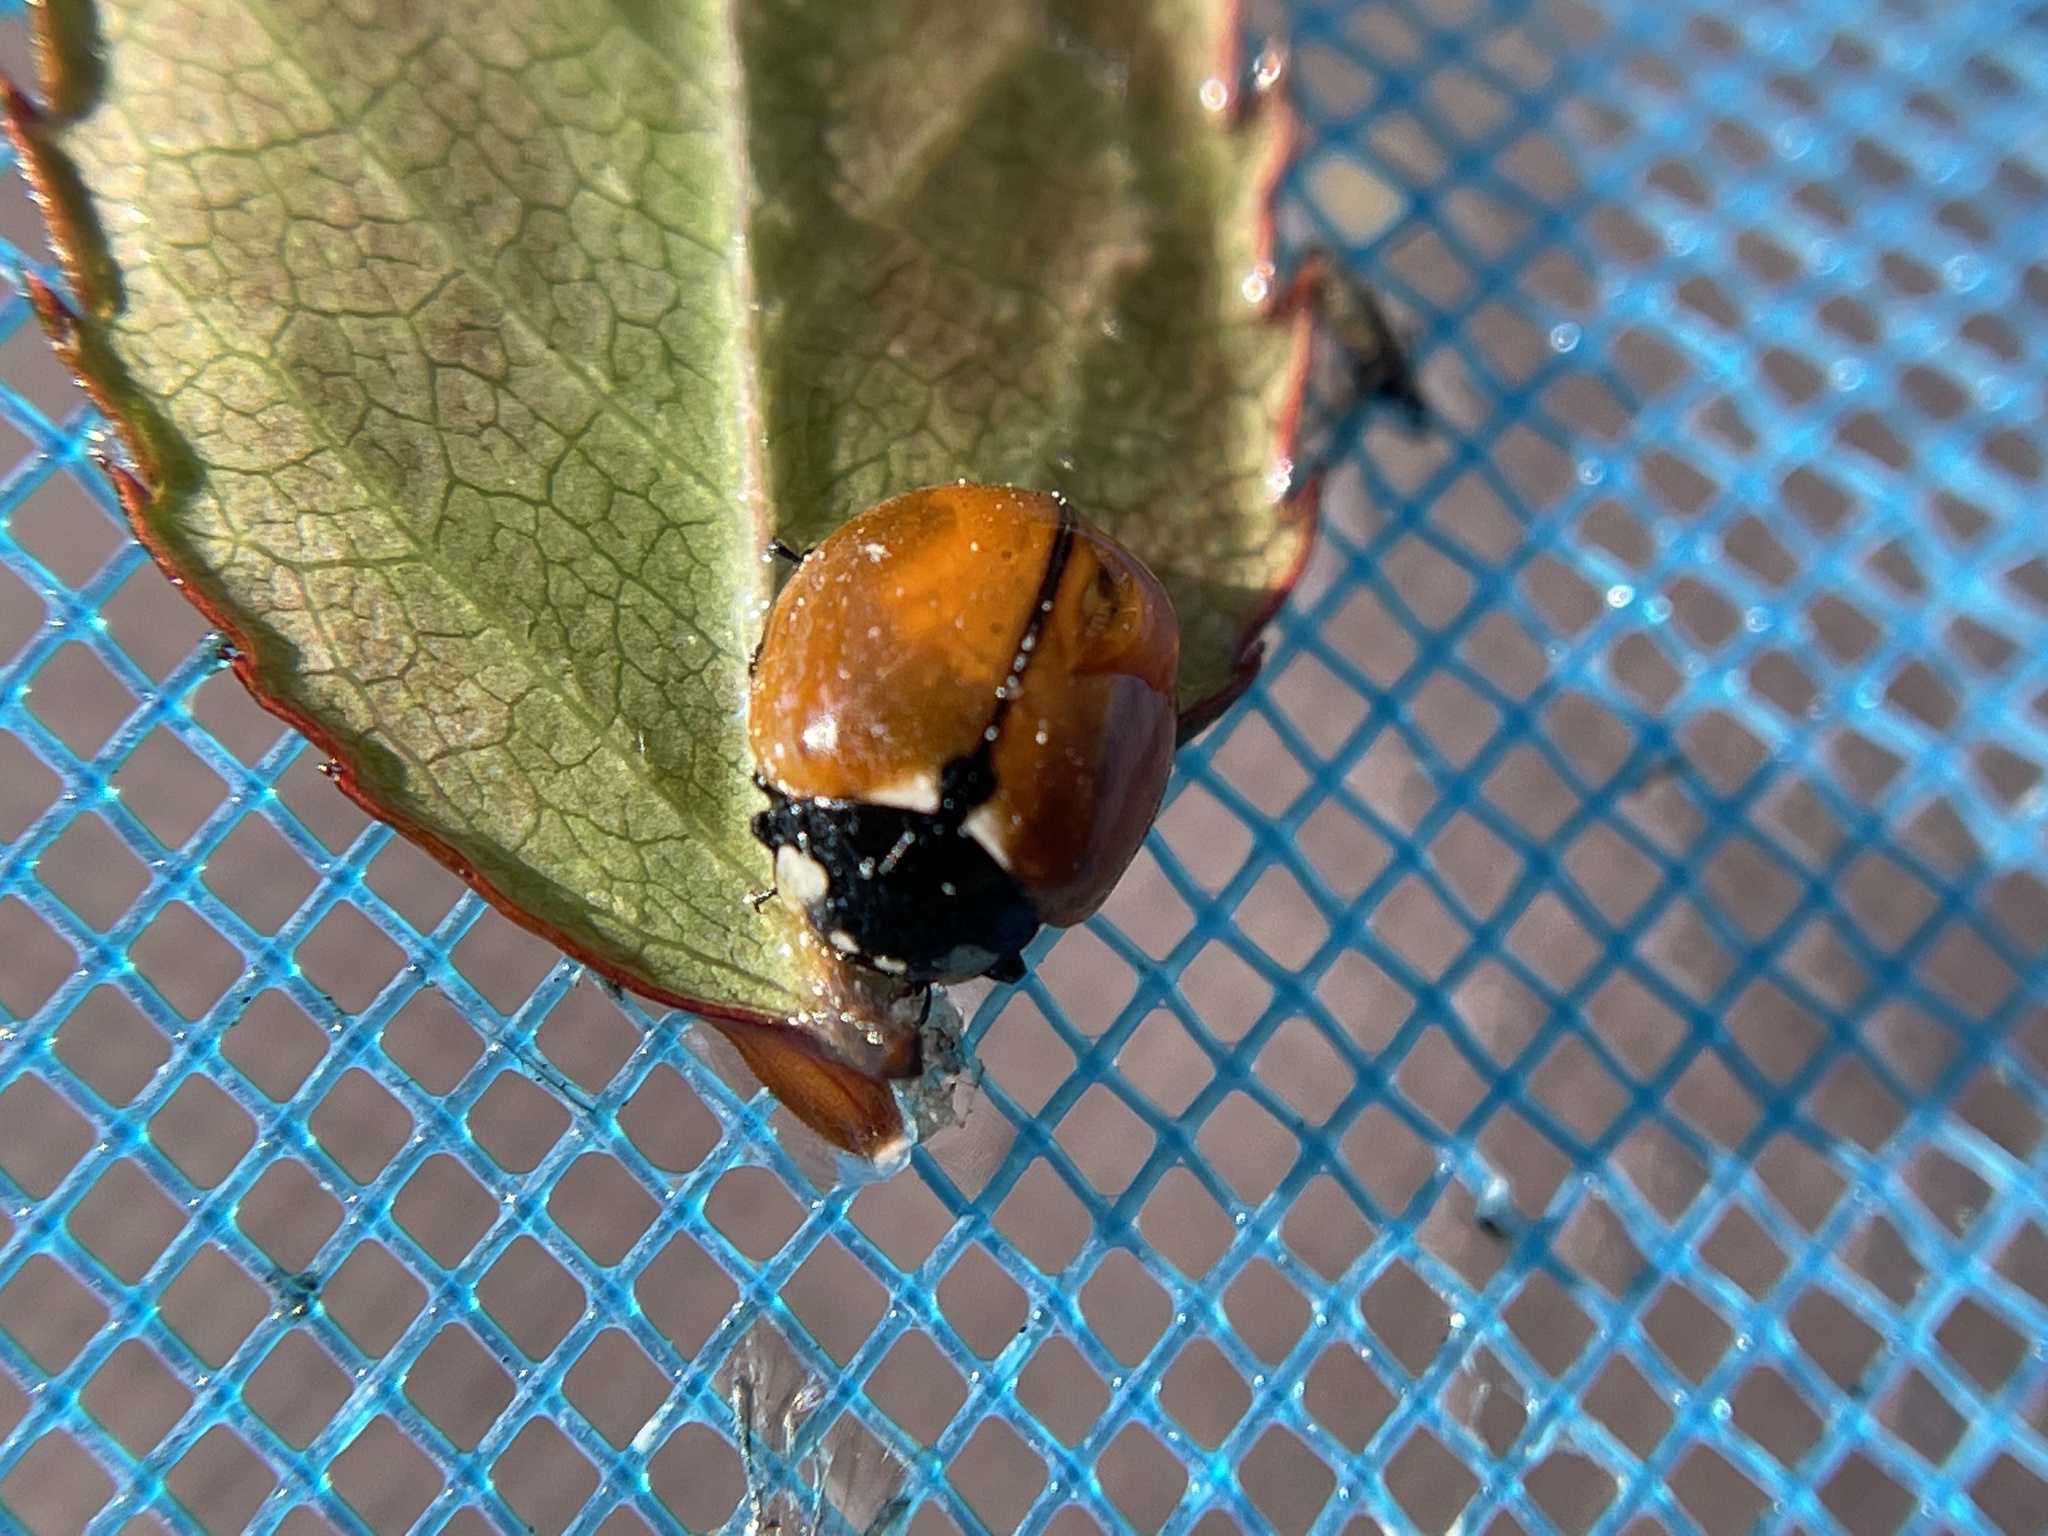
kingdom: Animalia
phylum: Arthropoda
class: Insecta
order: Coleoptera
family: Coccinellidae
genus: Coccinella
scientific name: Coccinella californica
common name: Lady beetle
